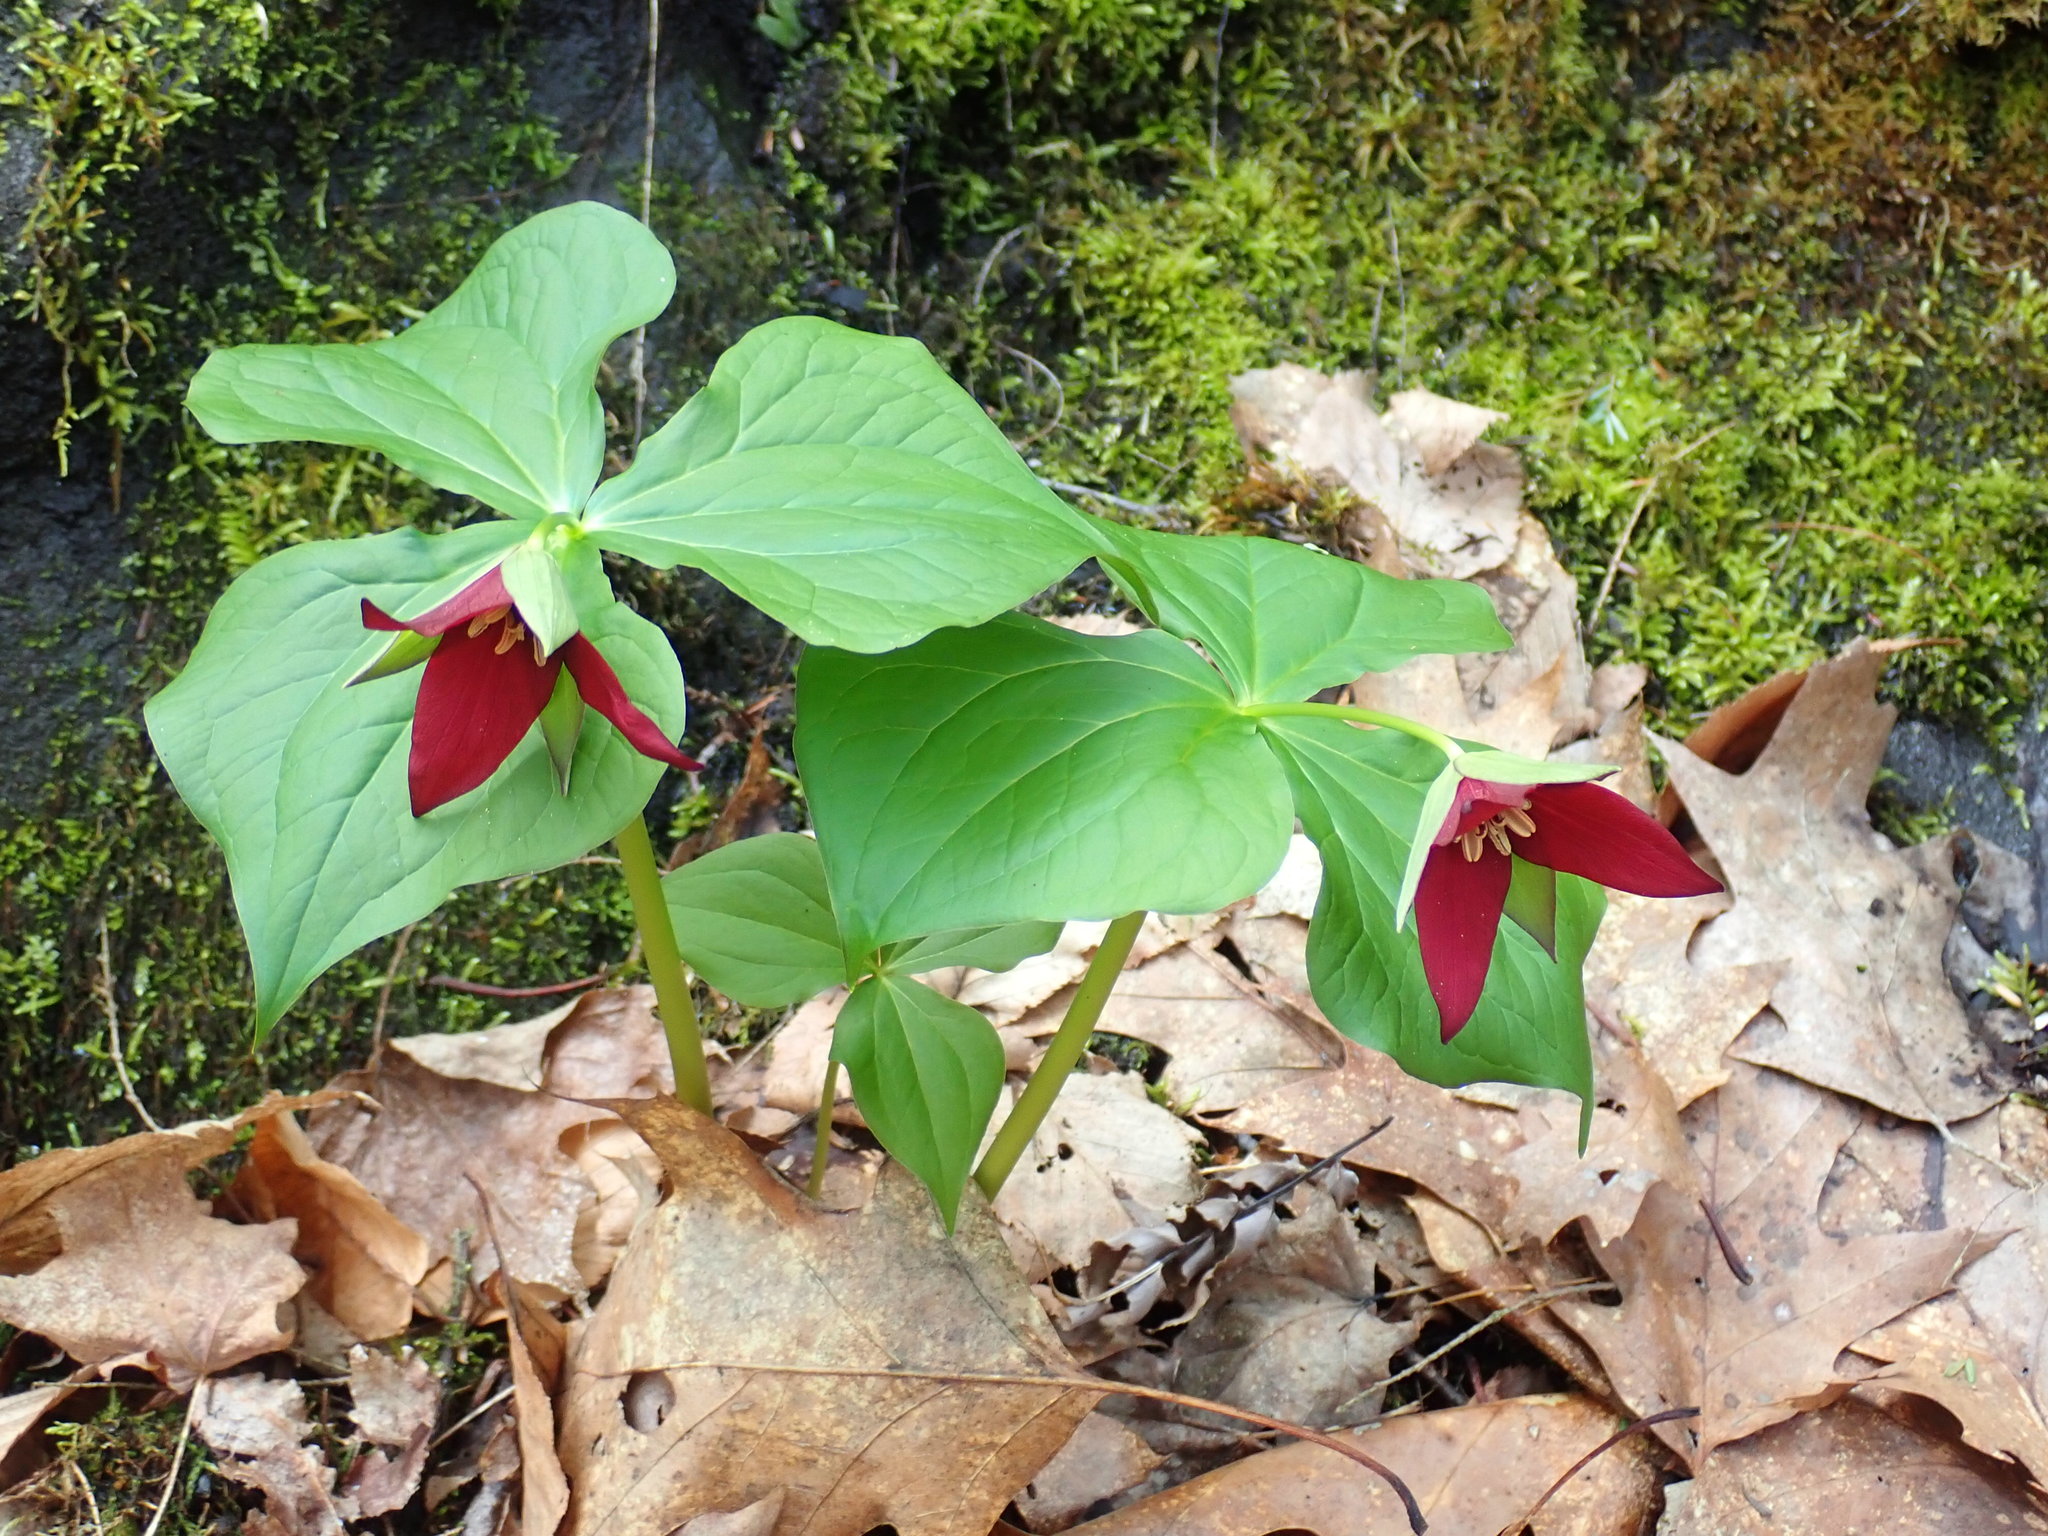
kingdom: Plantae
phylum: Tracheophyta
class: Liliopsida
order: Liliales
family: Melanthiaceae
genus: Trillium
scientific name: Trillium erectum
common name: Purple trillium
